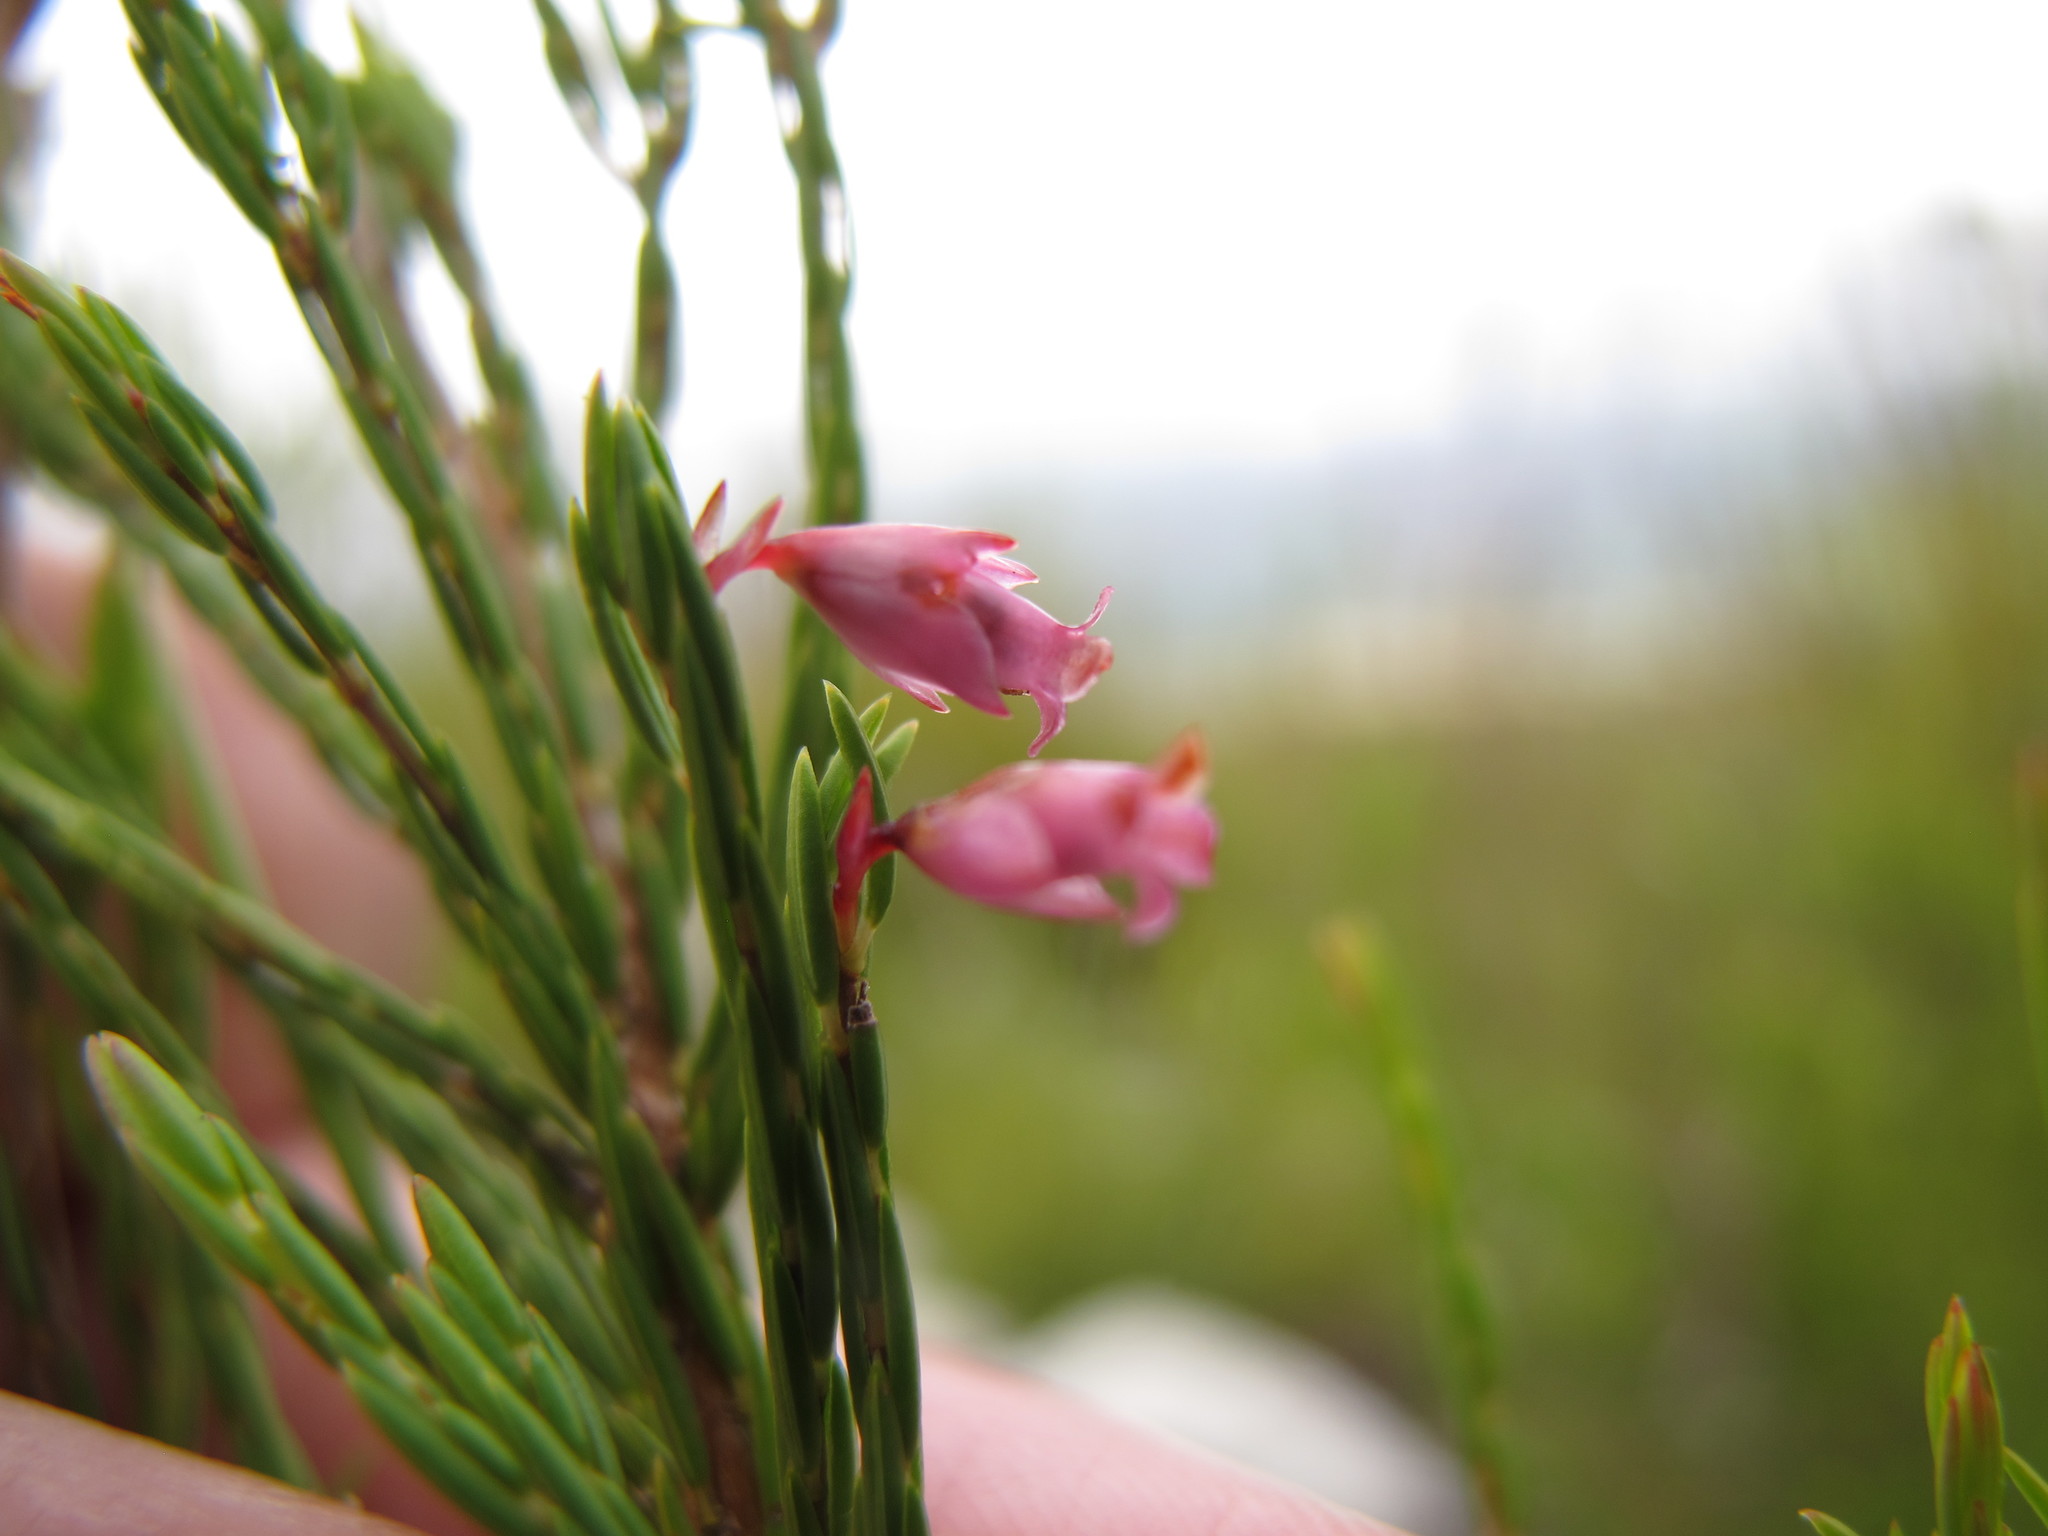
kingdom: Plantae
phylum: Tracheophyta
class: Magnoliopsida
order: Ericales
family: Ericaceae
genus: Erica
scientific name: Erica borboniifolia
